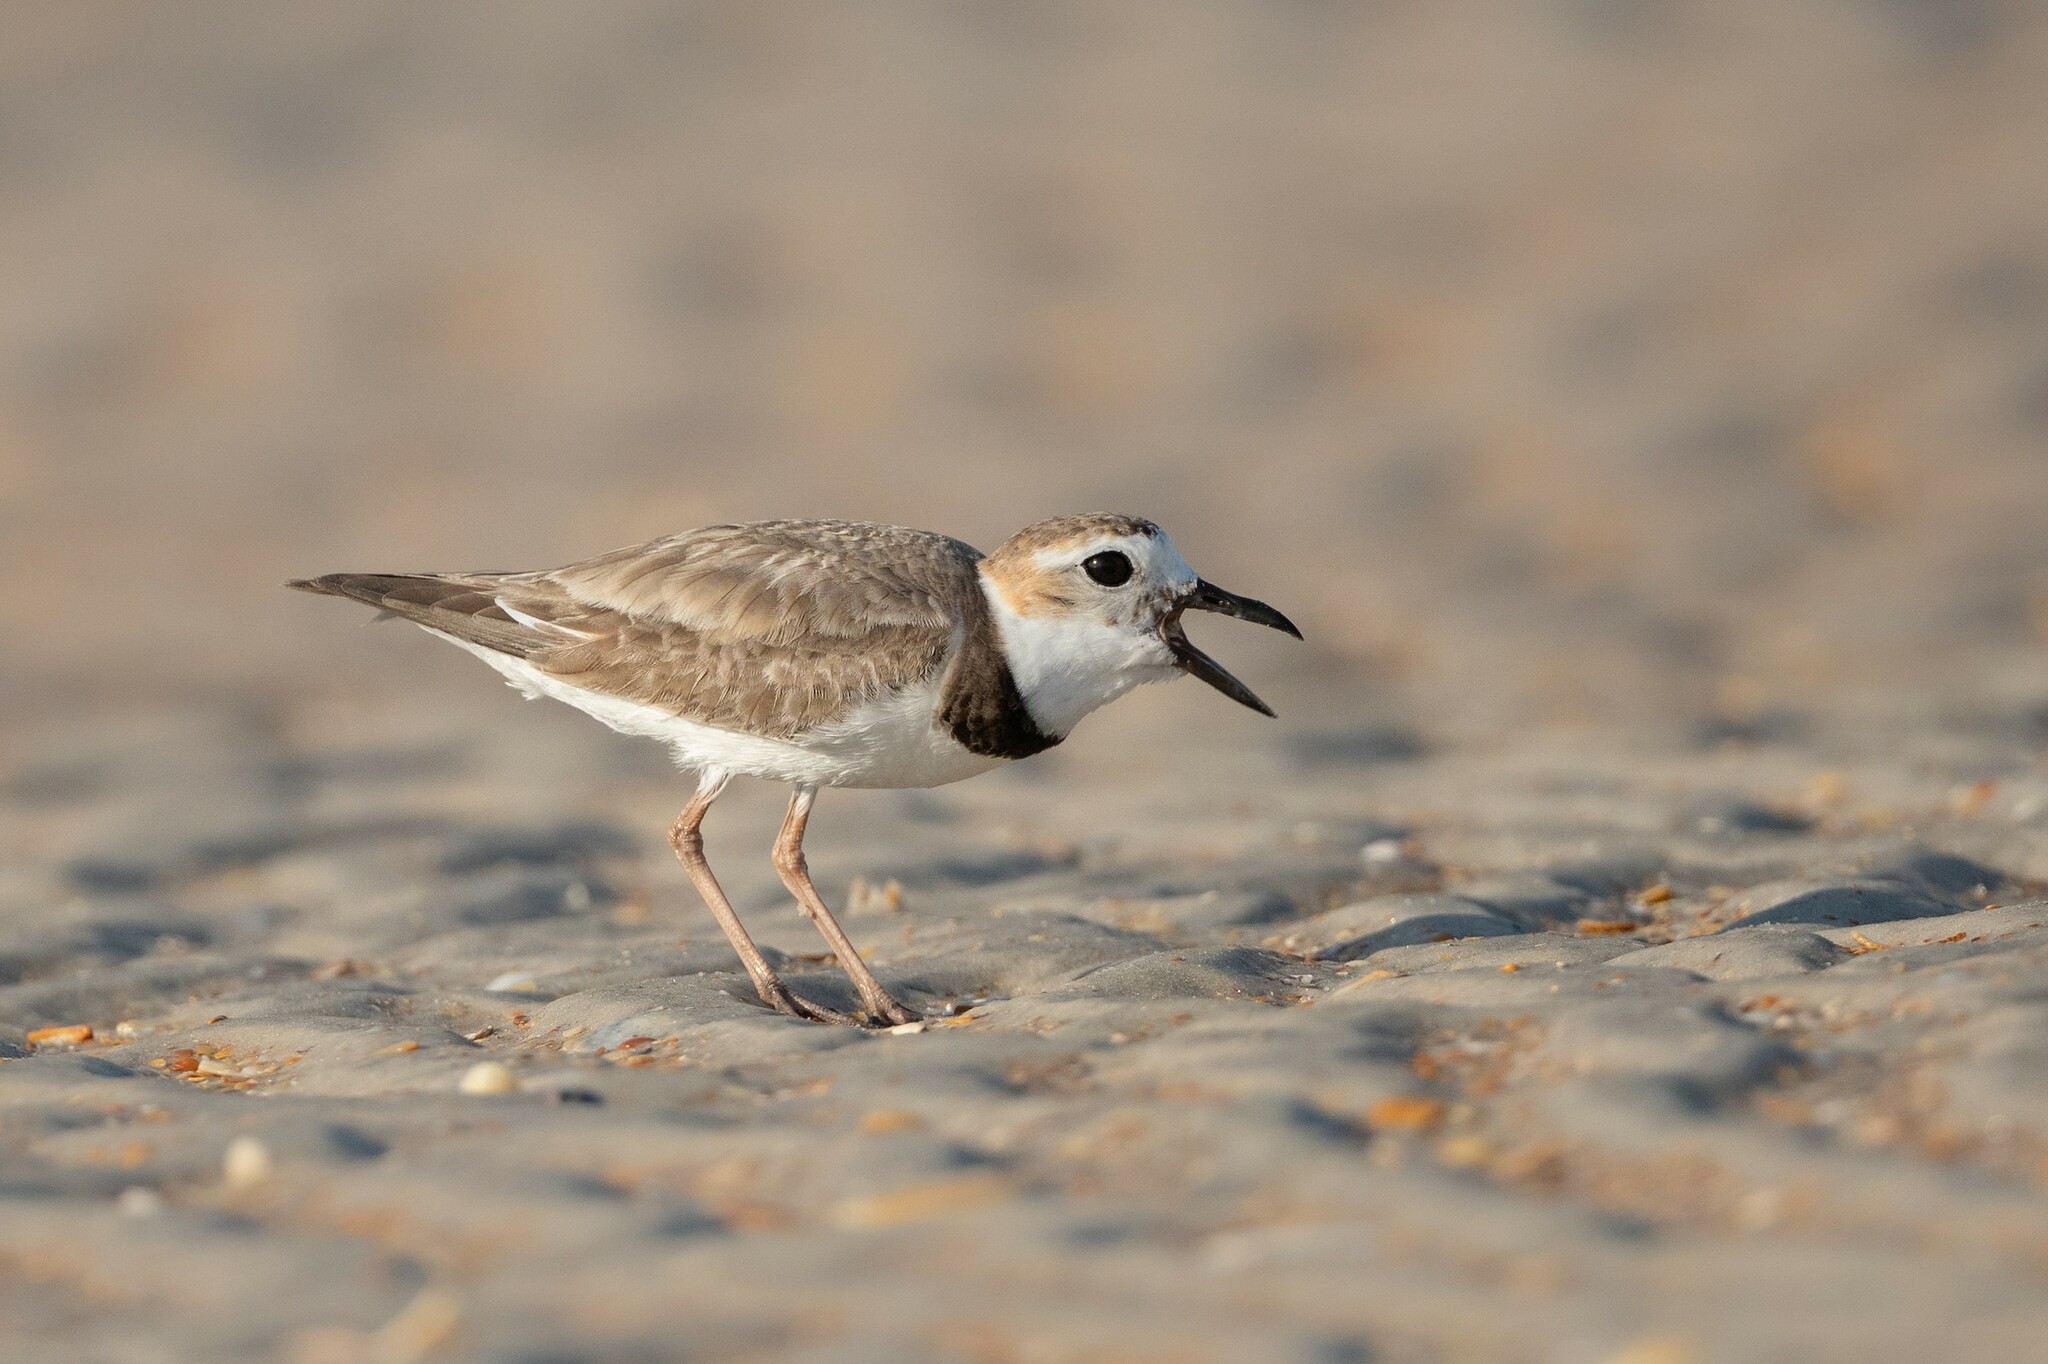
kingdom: Animalia
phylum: Chordata
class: Aves
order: Charadriiformes
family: Charadriidae
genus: Anarhynchus
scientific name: Anarhynchus
